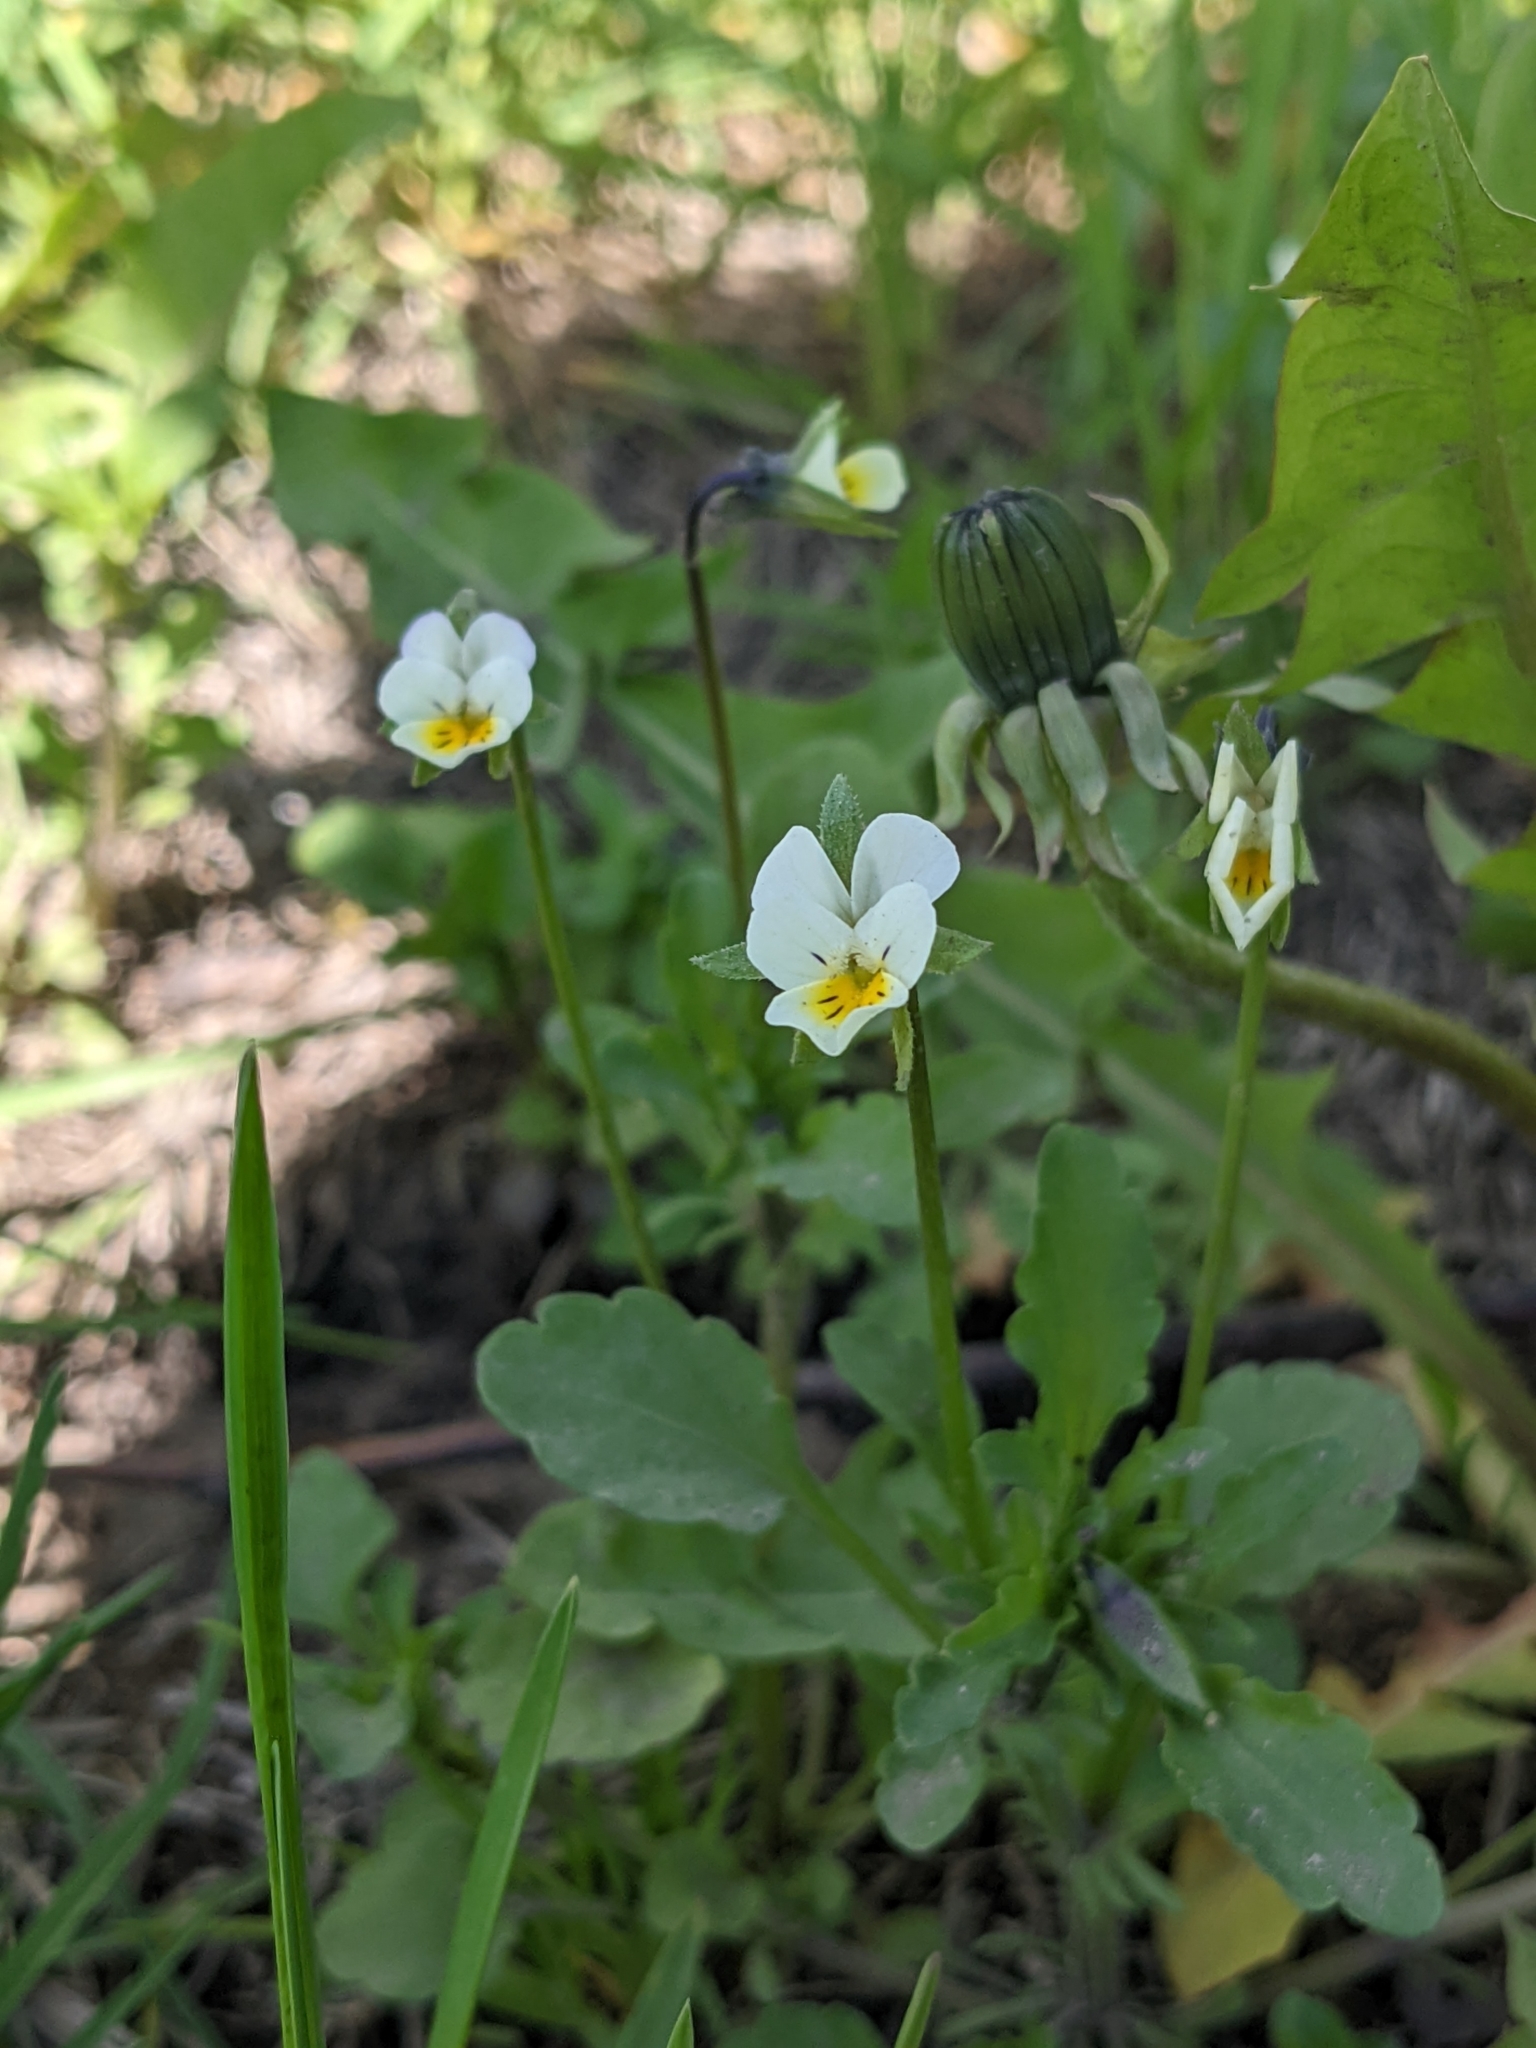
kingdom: Plantae
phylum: Tracheophyta
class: Magnoliopsida
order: Malpighiales
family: Violaceae
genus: Viola
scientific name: Viola arvensis
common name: Field pansy
